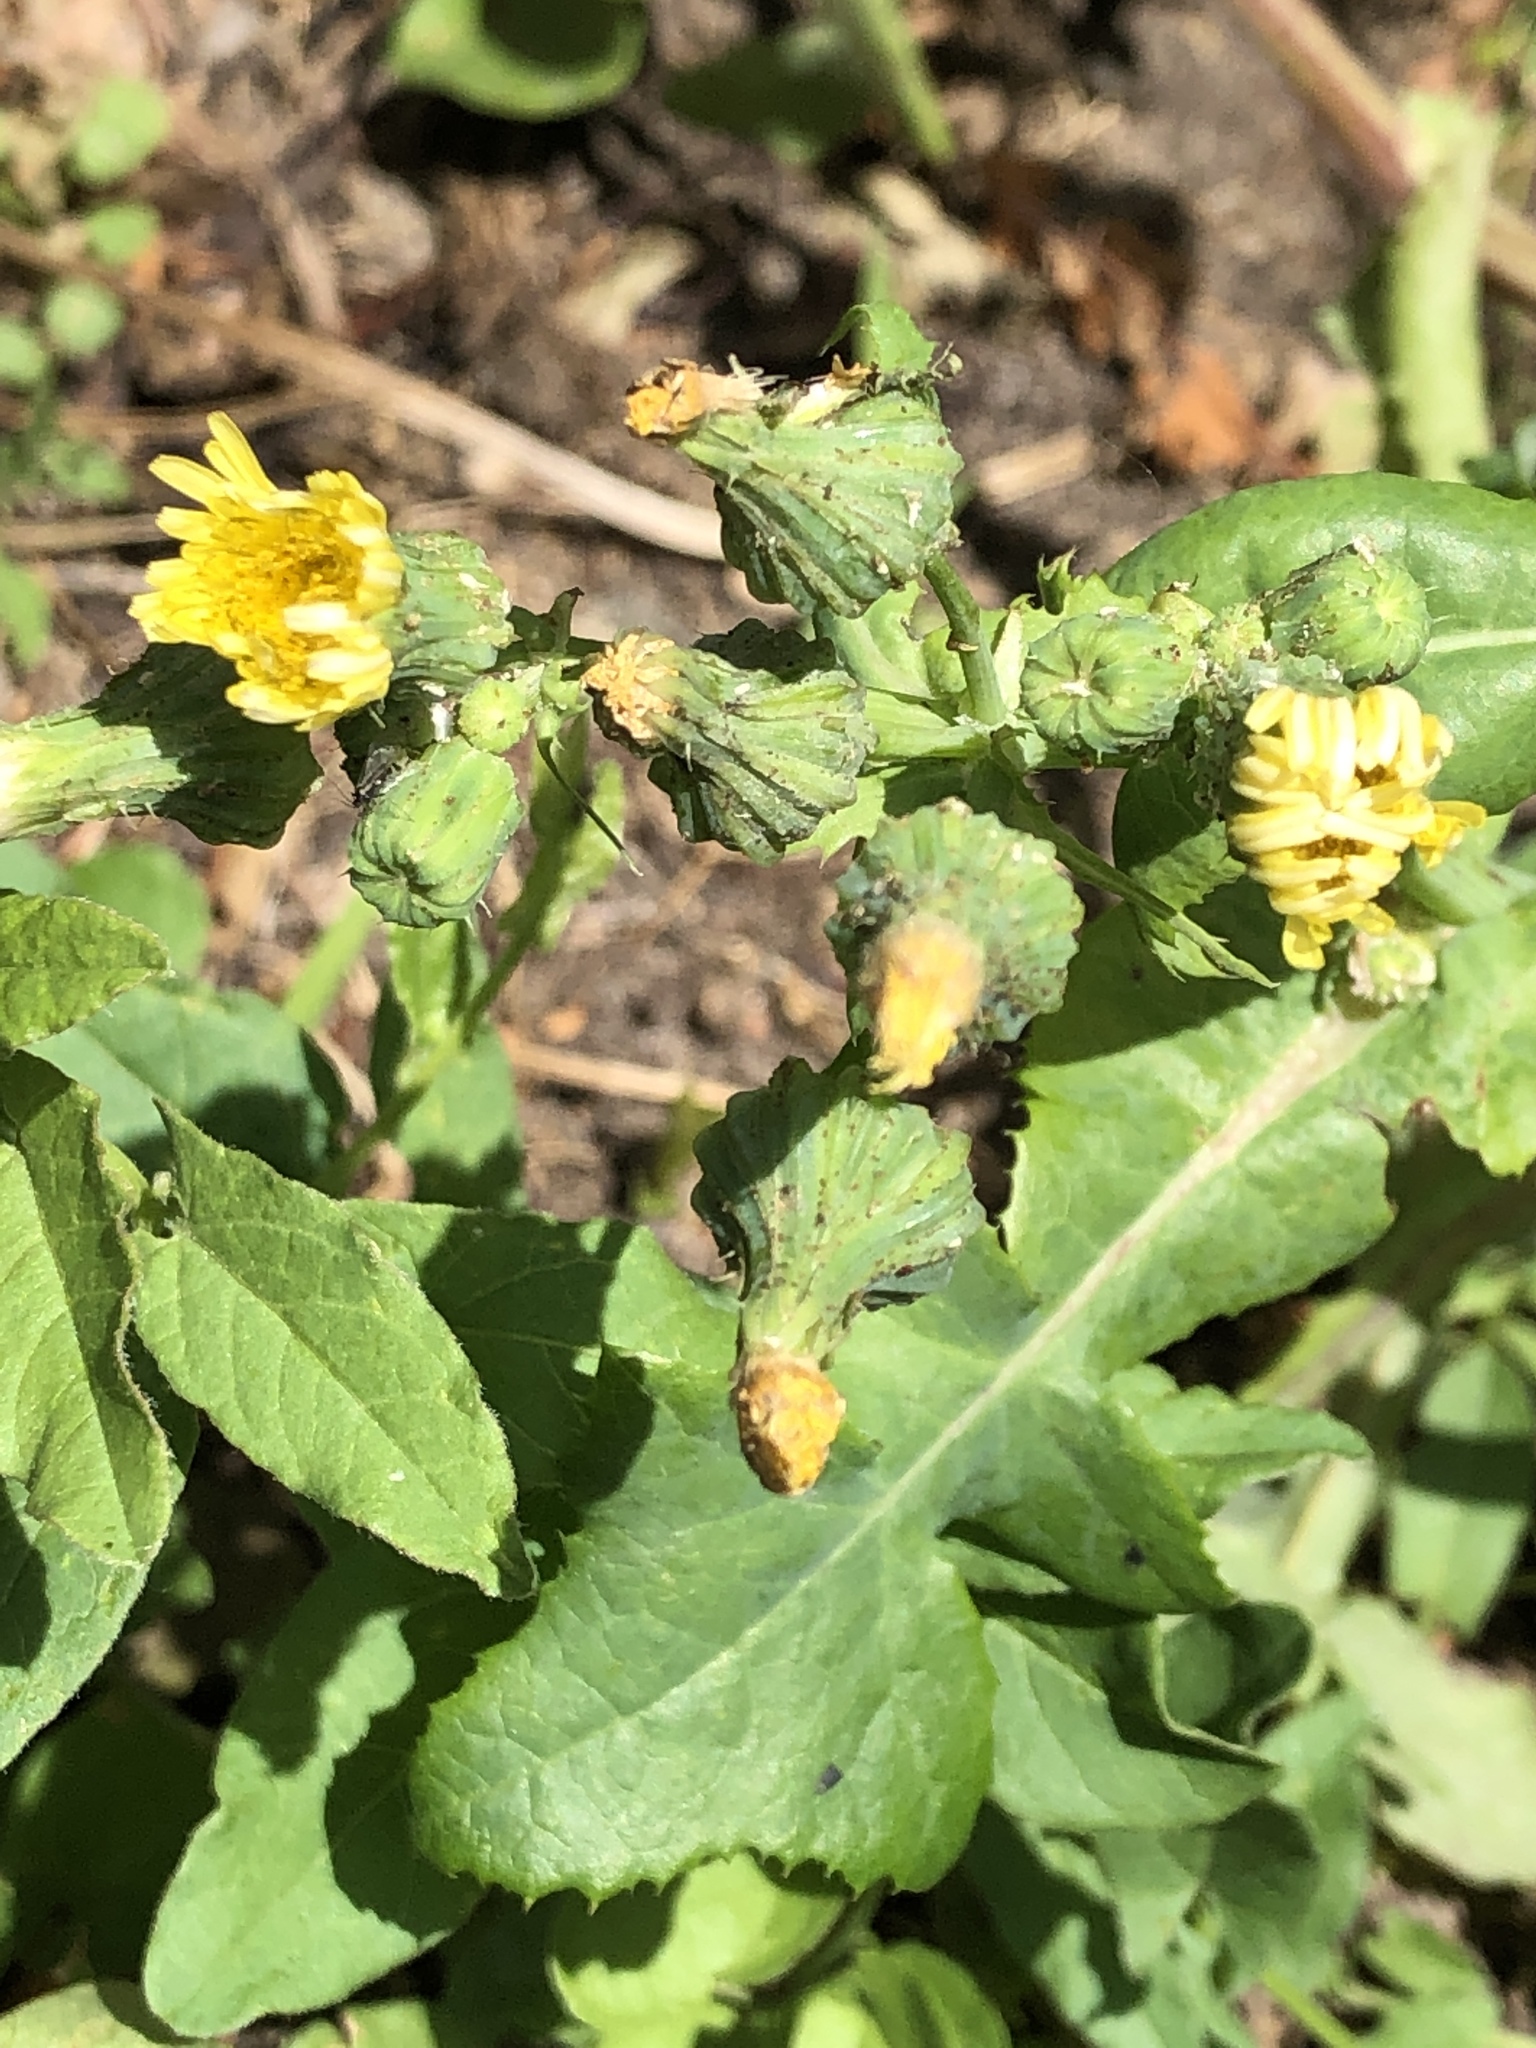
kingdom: Plantae
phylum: Tracheophyta
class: Magnoliopsida
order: Asterales
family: Asteraceae
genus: Sonchus
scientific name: Sonchus oleraceus
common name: Common sowthistle
